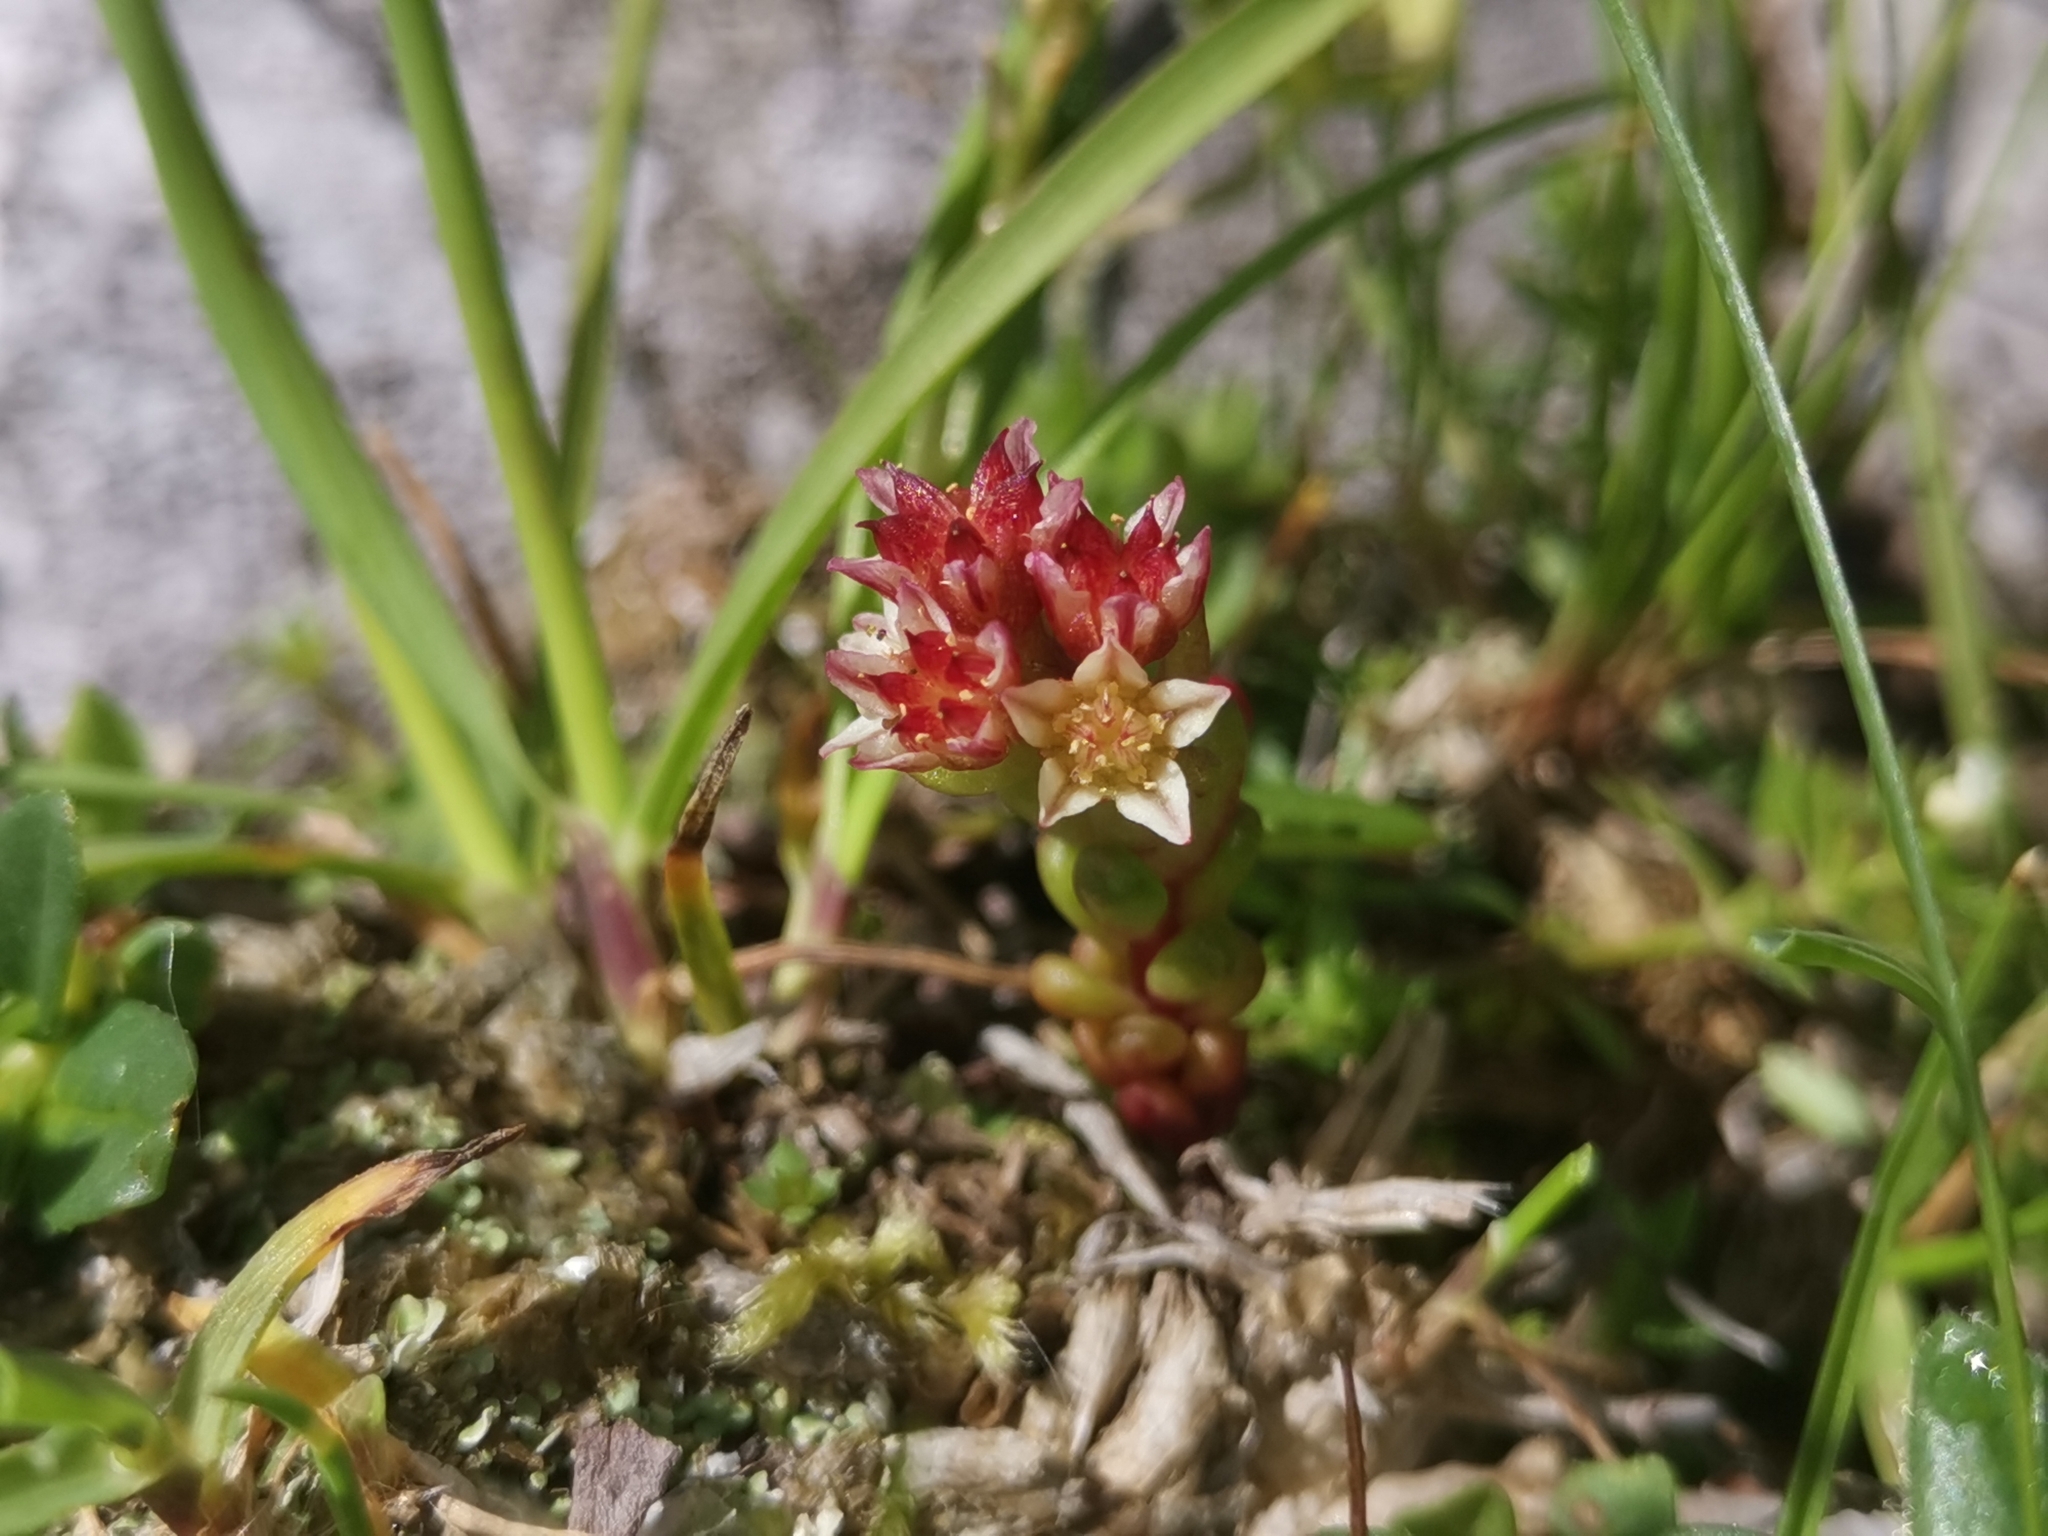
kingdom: Plantae
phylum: Tracheophyta
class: Magnoliopsida
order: Saxifragales
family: Crassulaceae
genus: Sedum
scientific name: Sedum atratum
